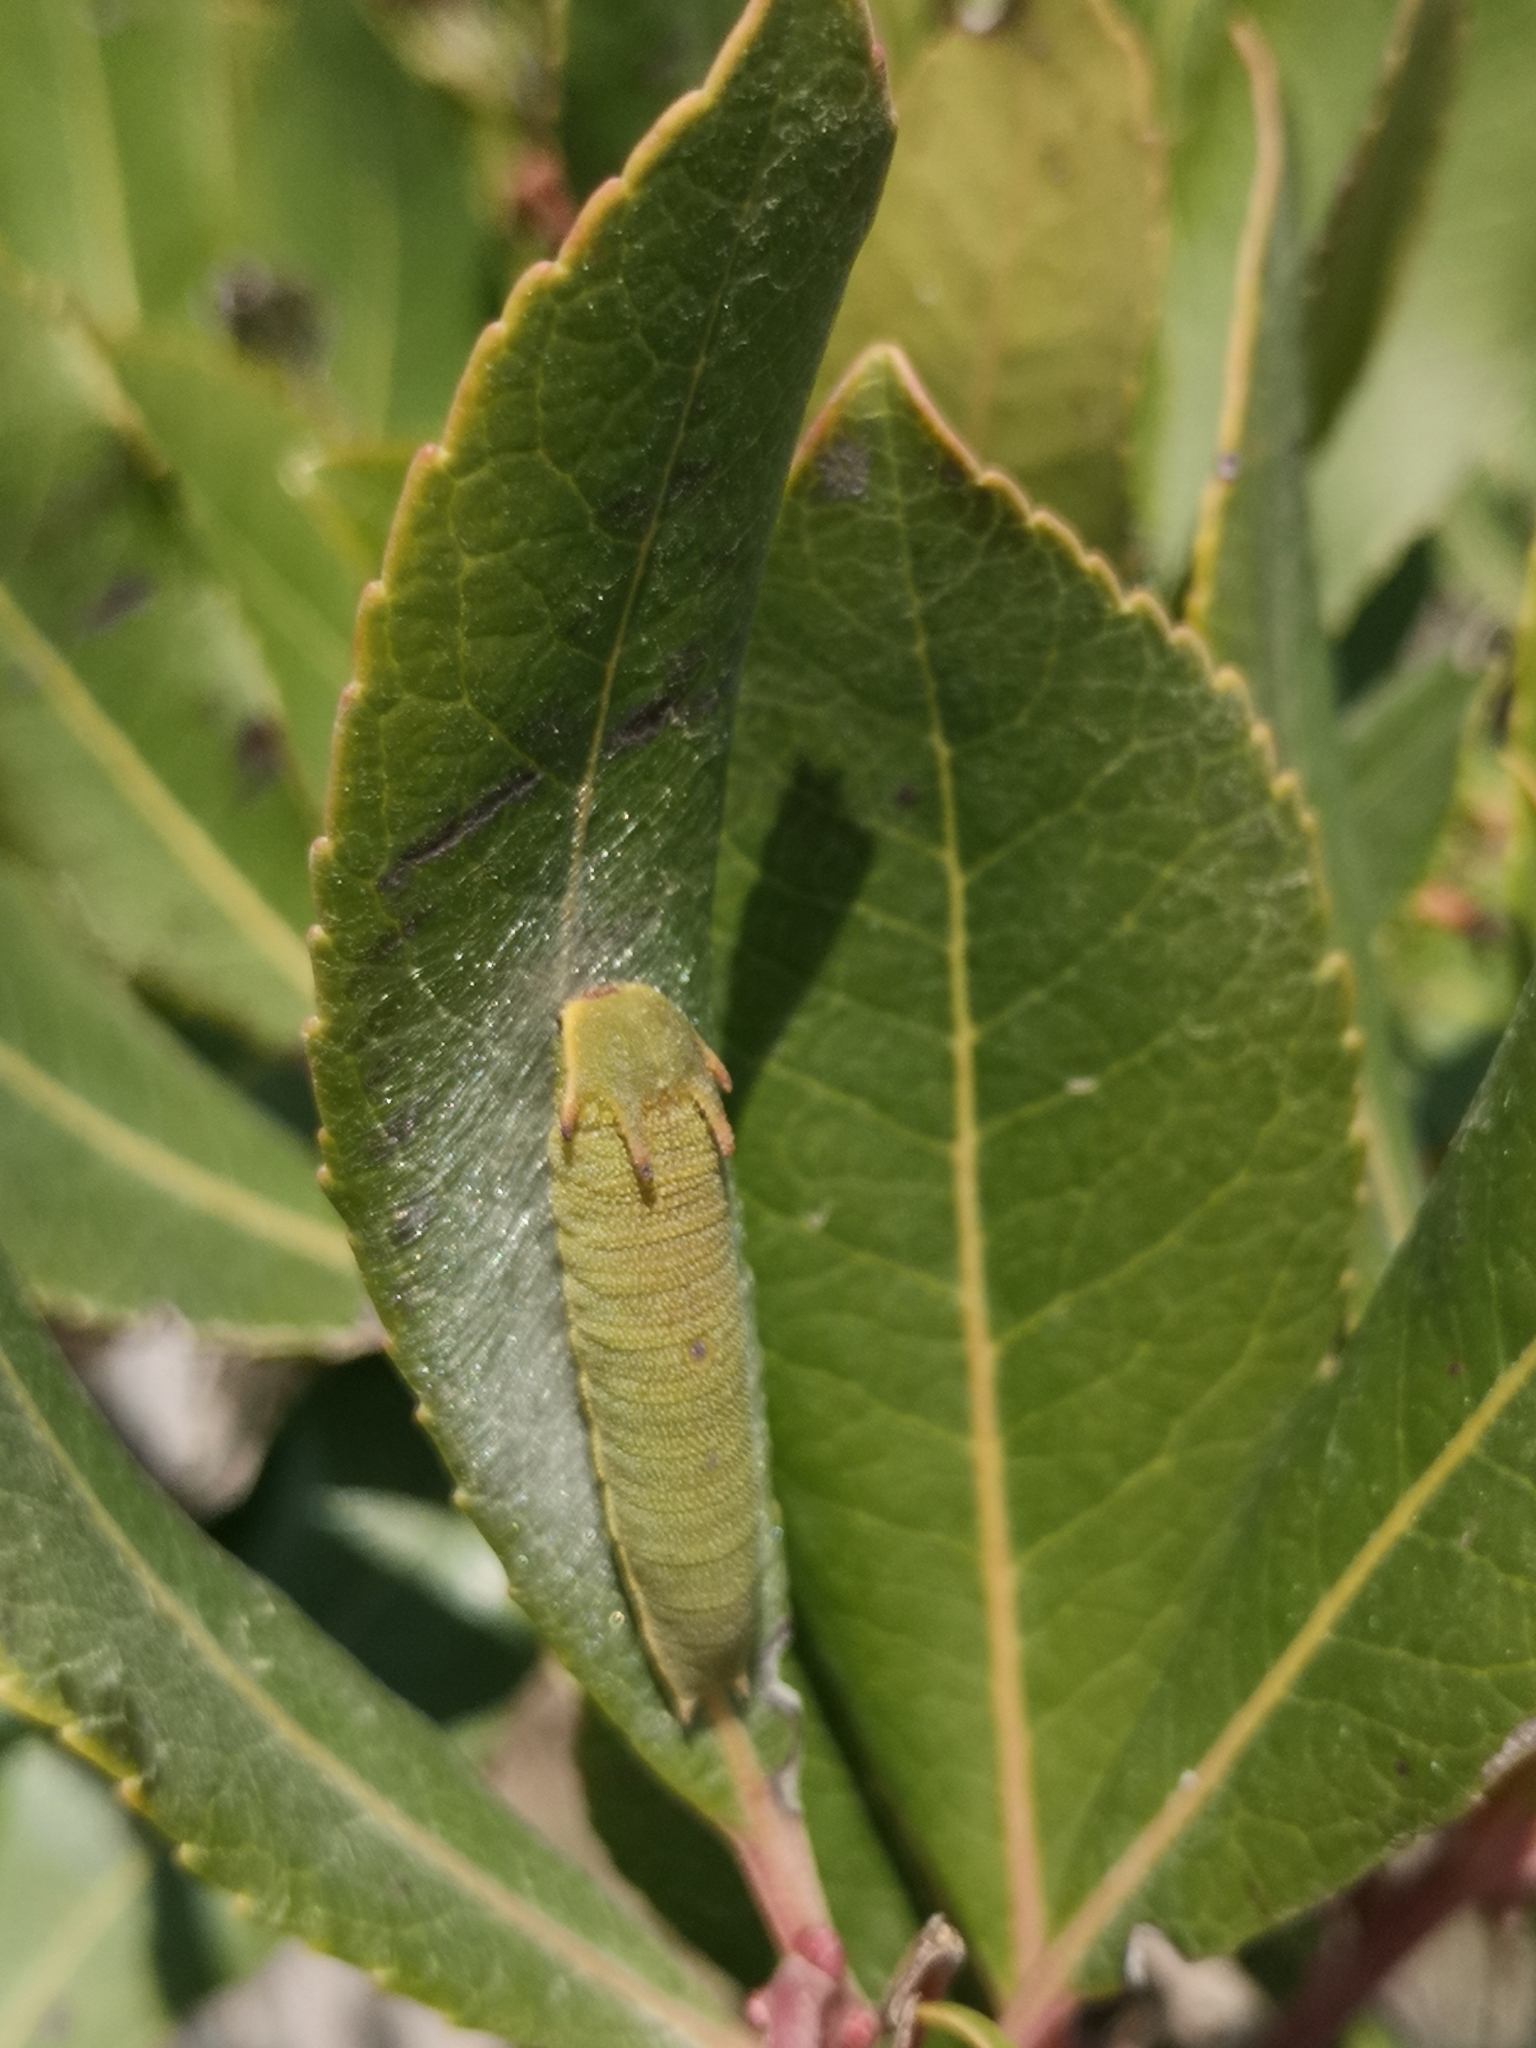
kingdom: Animalia
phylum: Arthropoda
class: Insecta
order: Lepidoptera
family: Nymphalidae
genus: Charaxes
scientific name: Charaxes jasius
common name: Two tailed pasha
